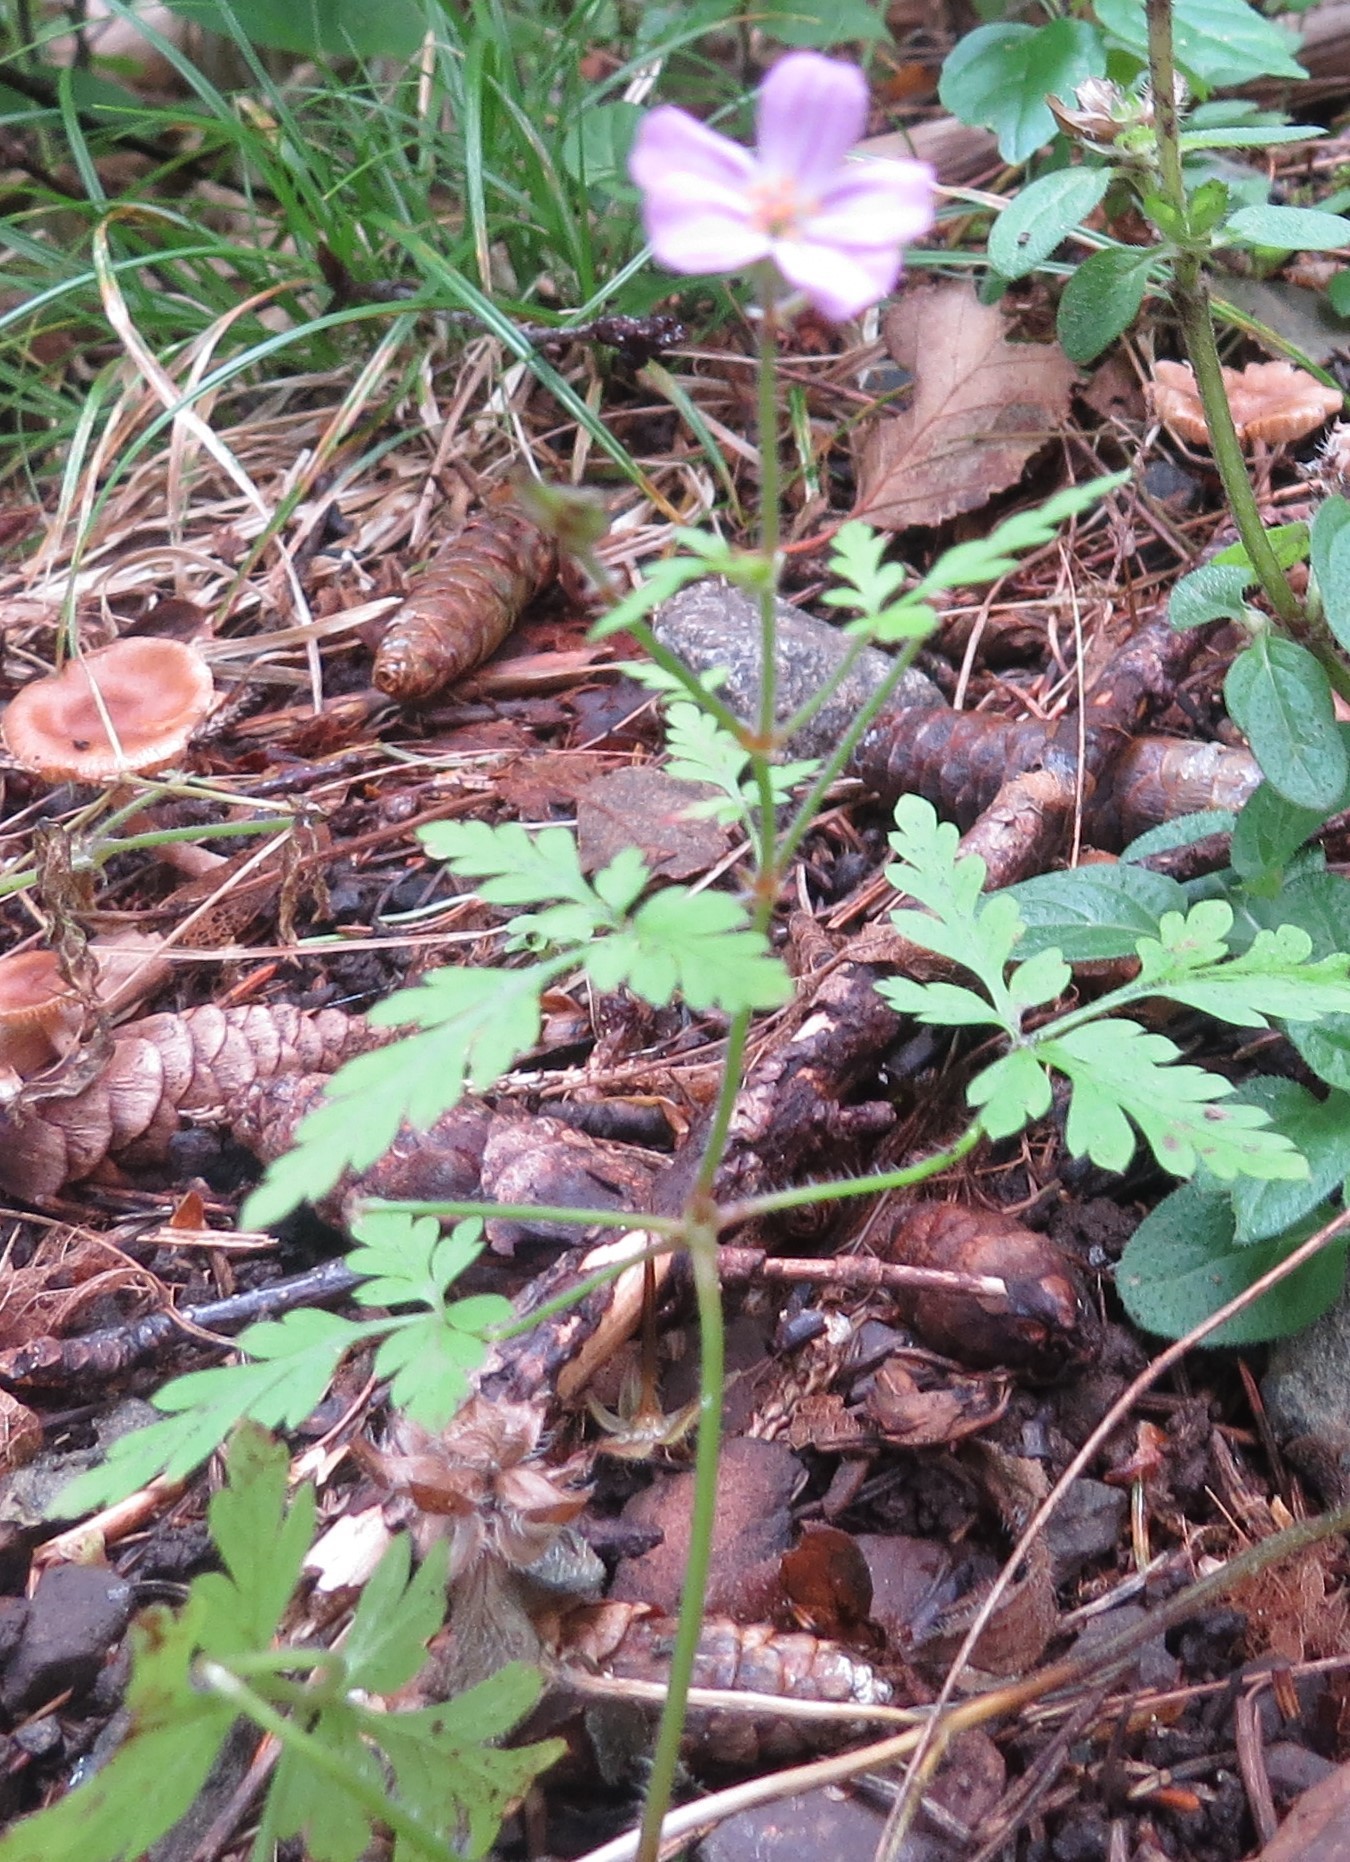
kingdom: Plantae
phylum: Tracheophyta
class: Magnoliopsida
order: Geraniales
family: Geraniaceae
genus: Geranium
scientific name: Geranium robertianum
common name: Herb-robert
